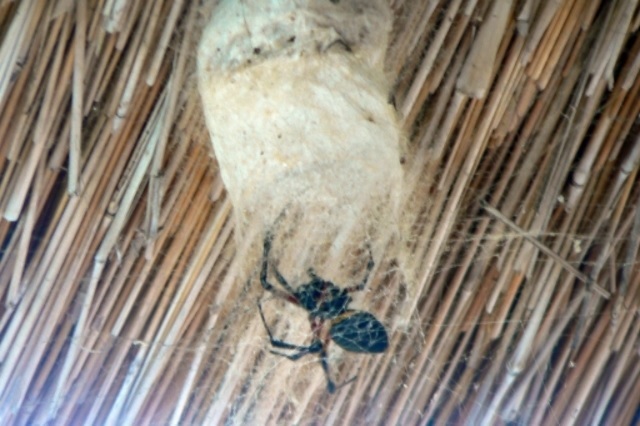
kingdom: Animalia
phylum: Arthropoda
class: Arachnida
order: Araneae
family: Araneidae
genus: Nephilingis
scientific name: Nephilingis cruentata
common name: African hermit spider
